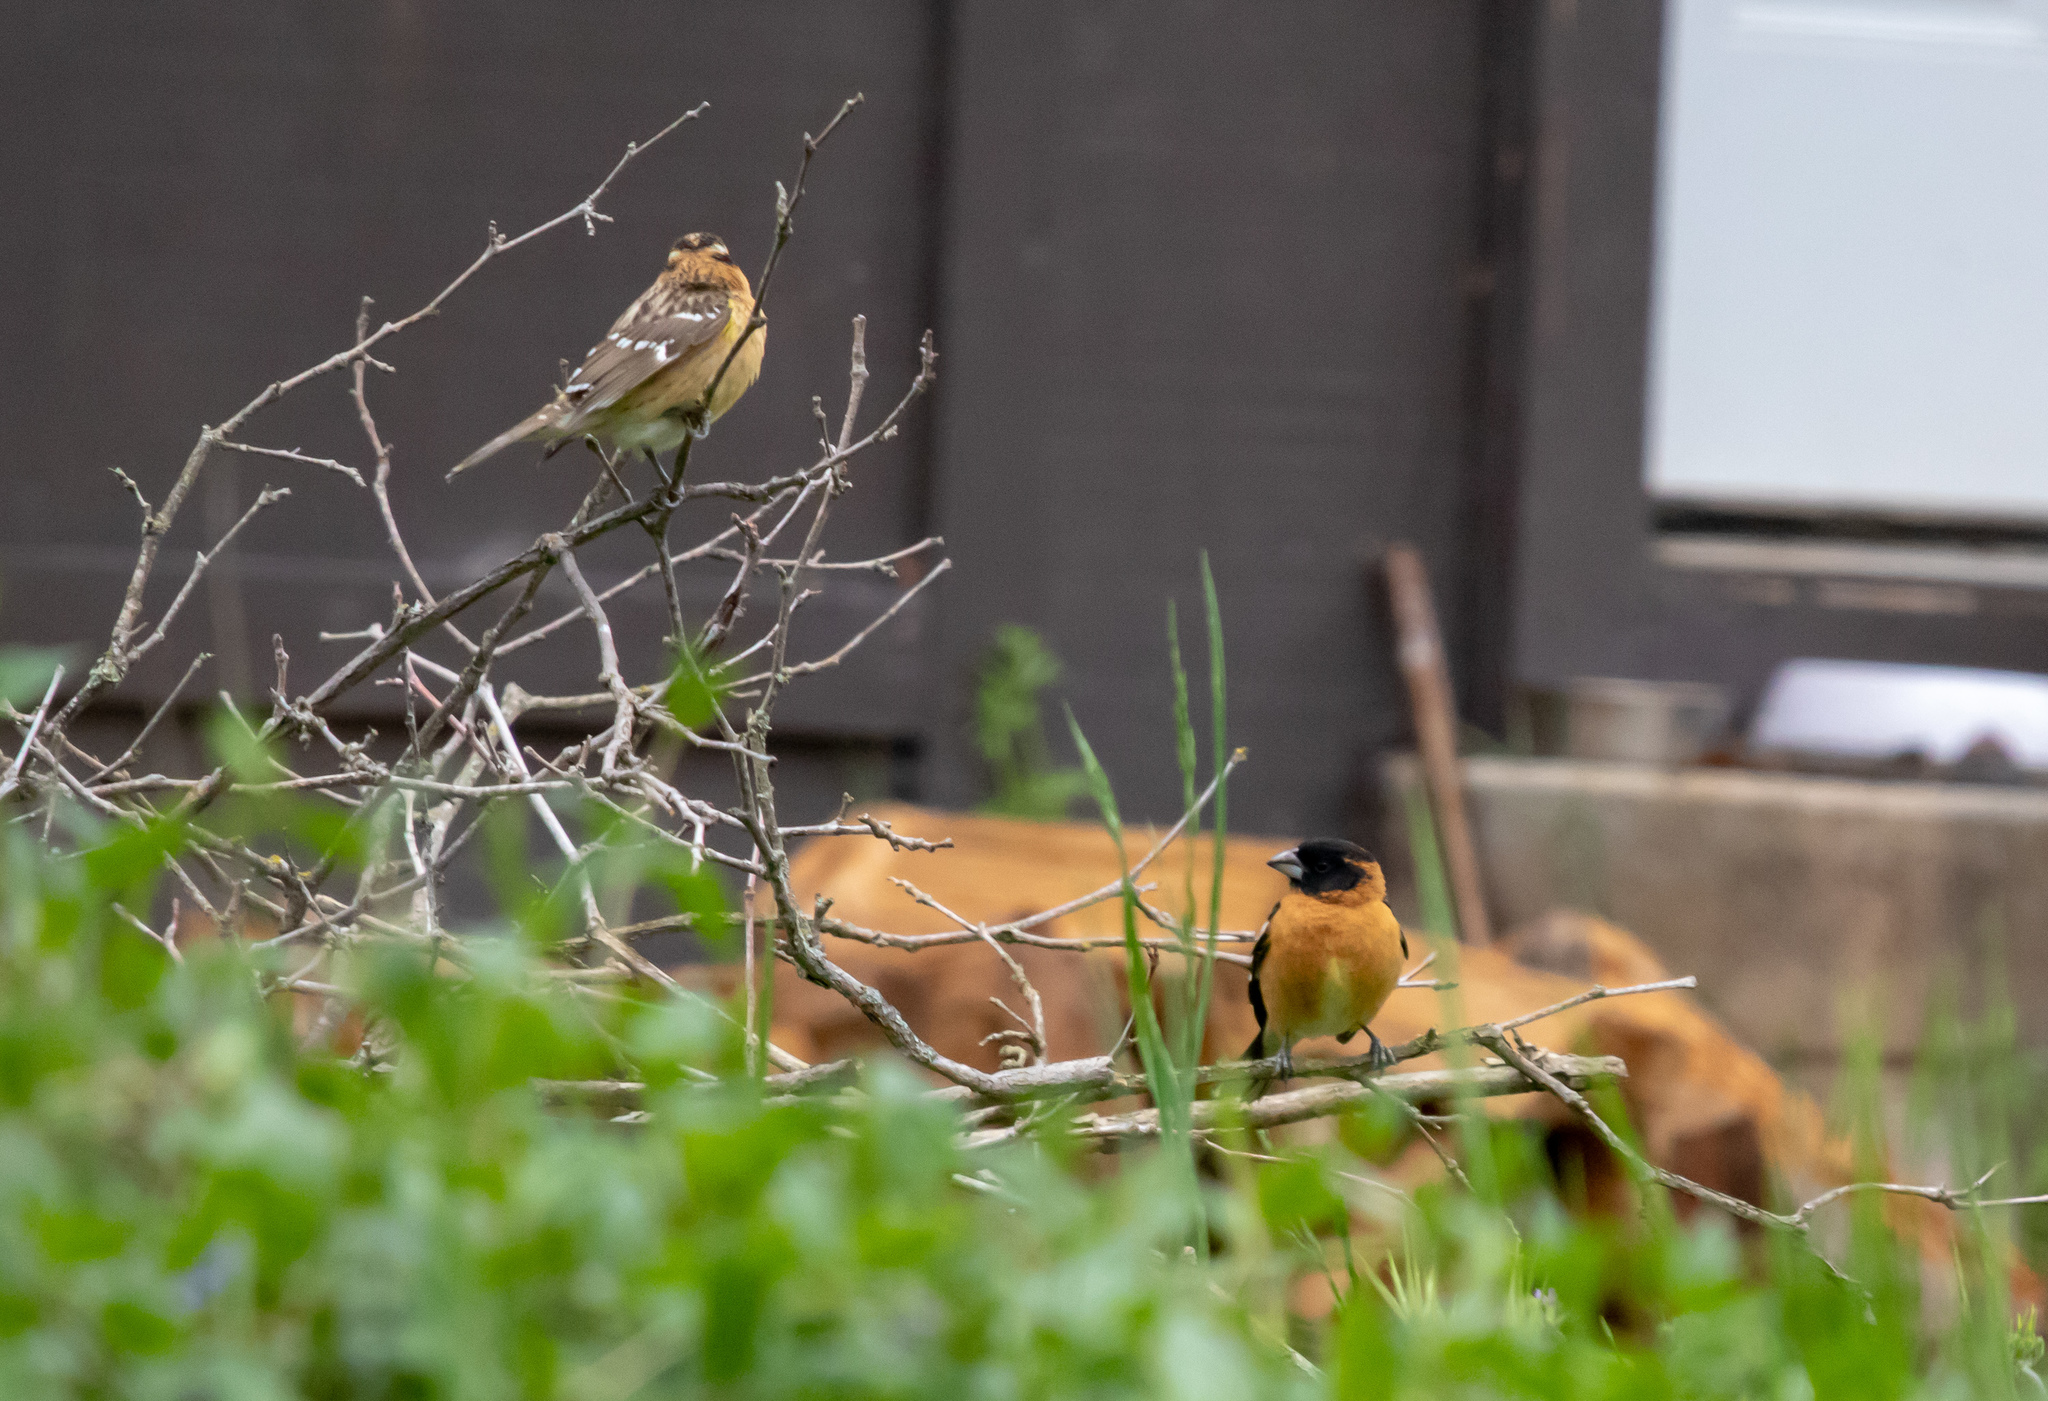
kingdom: Animalia
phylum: Chordata
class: Aves
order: Passeriformes
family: Cardinalidae
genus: Pheucticus
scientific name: Pheucticus melanocephalus
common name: Black-headed grosbeak
